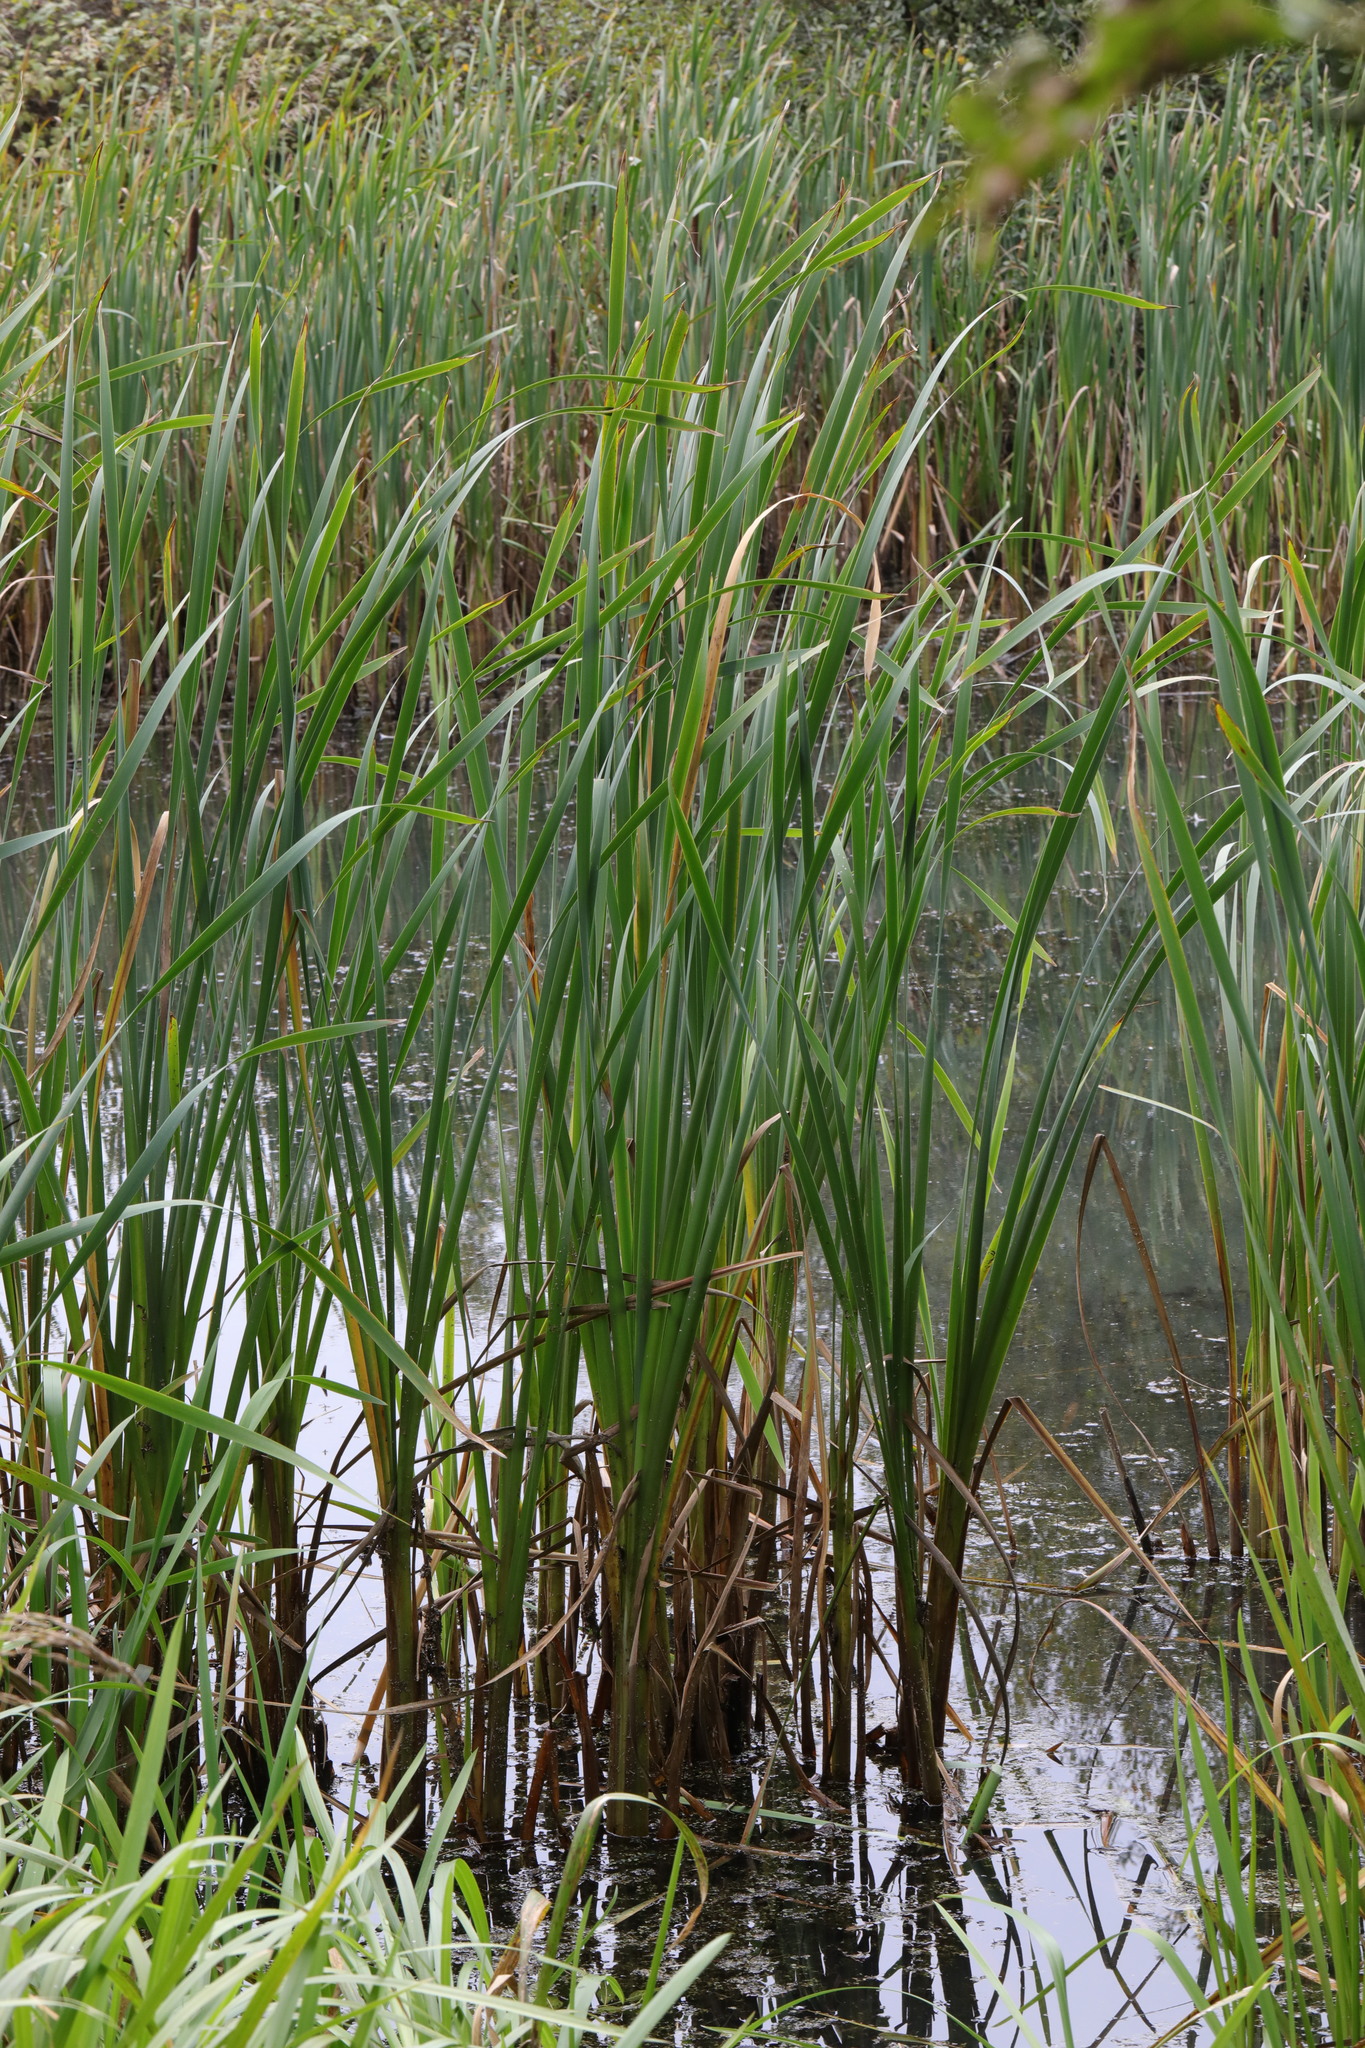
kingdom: Plantae
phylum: Tracheophyta
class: Liliopsida
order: Poales
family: Typhaceae
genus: Typha
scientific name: Typha latifolia
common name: Broadleaf cattail
